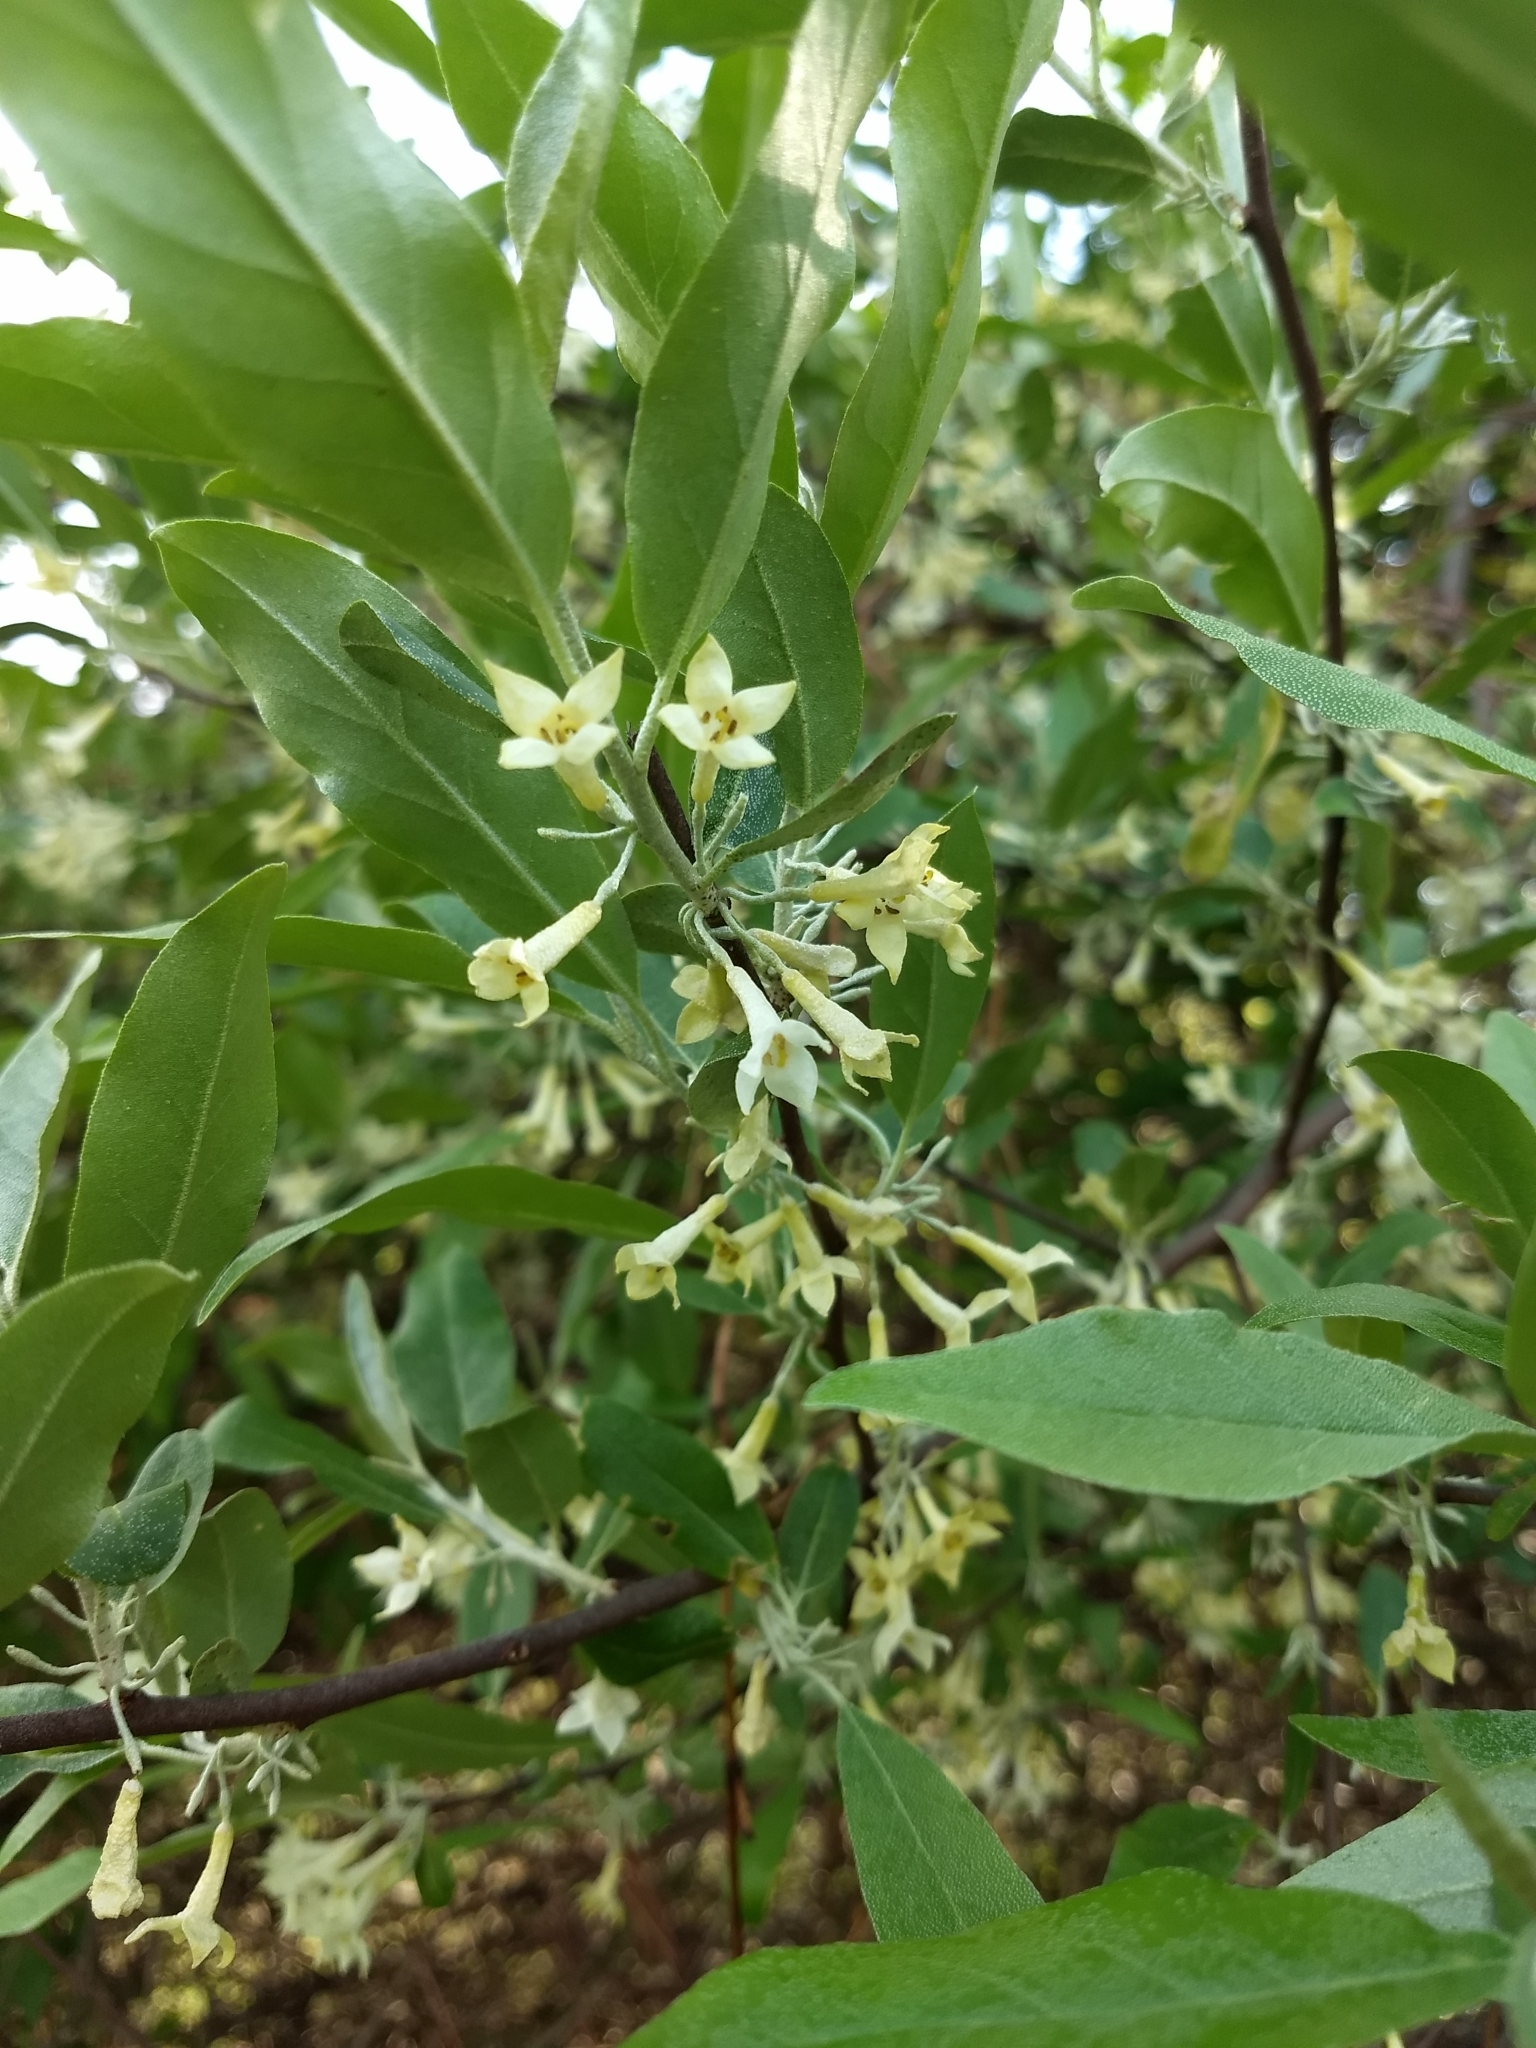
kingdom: Plantae
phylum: Tracheophyta
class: Magnoliopsida
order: Rosales
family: Elaeagnaceae
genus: Elaeagnus
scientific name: Elaeagnus umbellata
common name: Autumn olive
